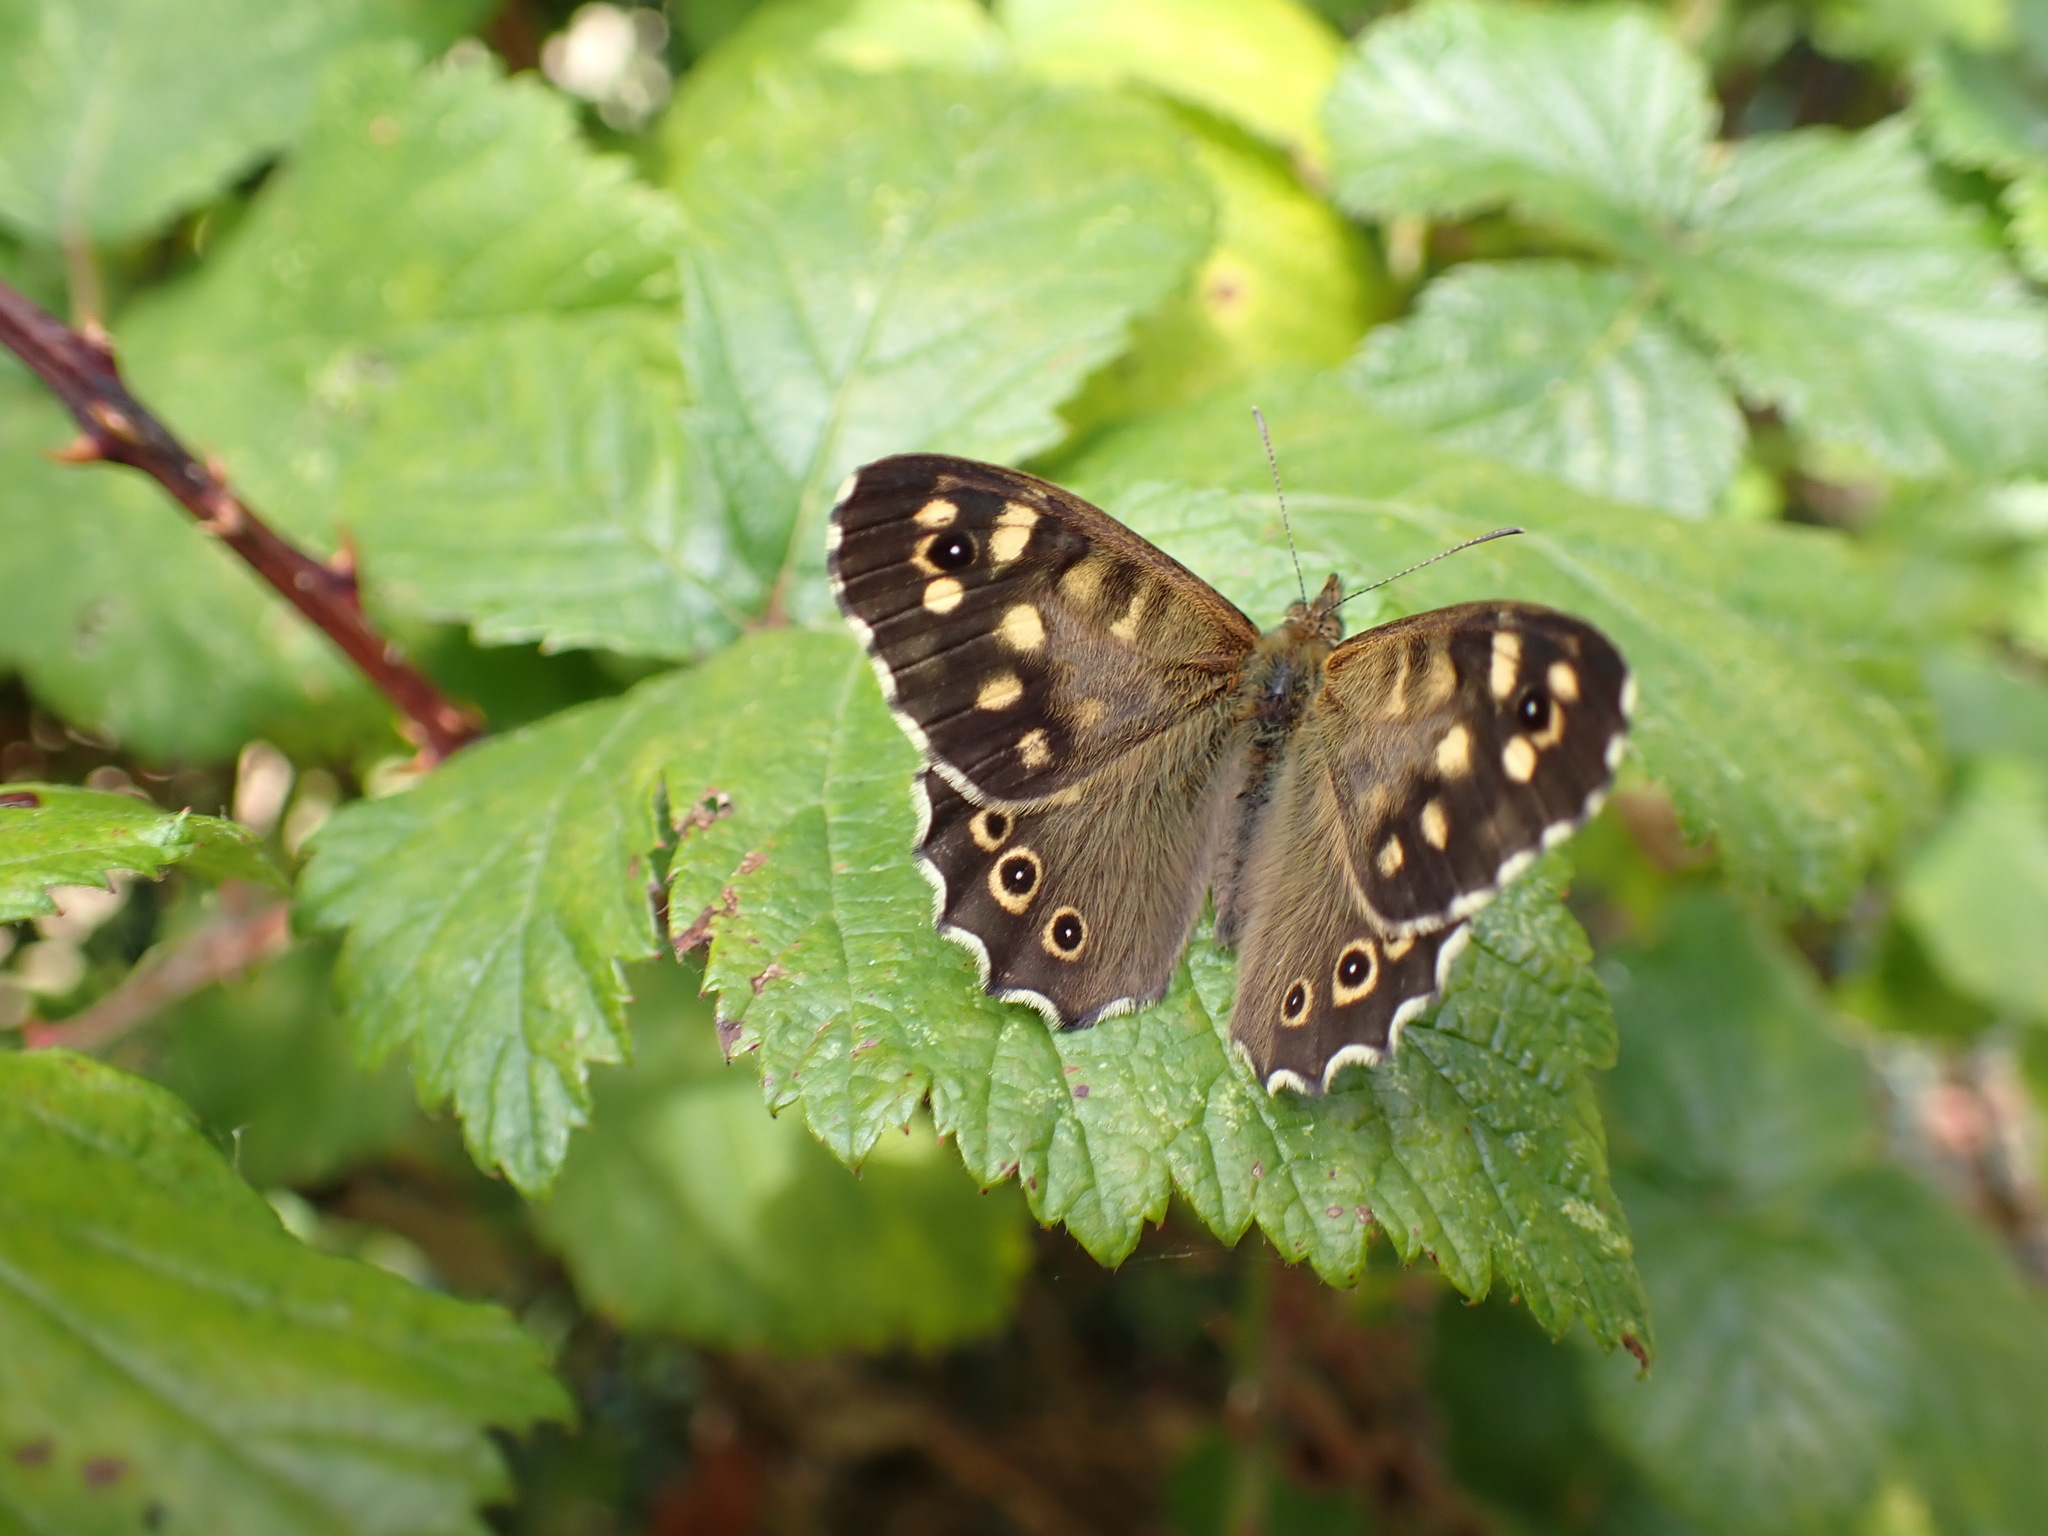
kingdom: Animalia
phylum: Arthropoda
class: Insecta
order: Lepidoptera
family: Nymphalidae
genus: Pararge
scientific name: Pararge aegeria
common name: Speckled wood
